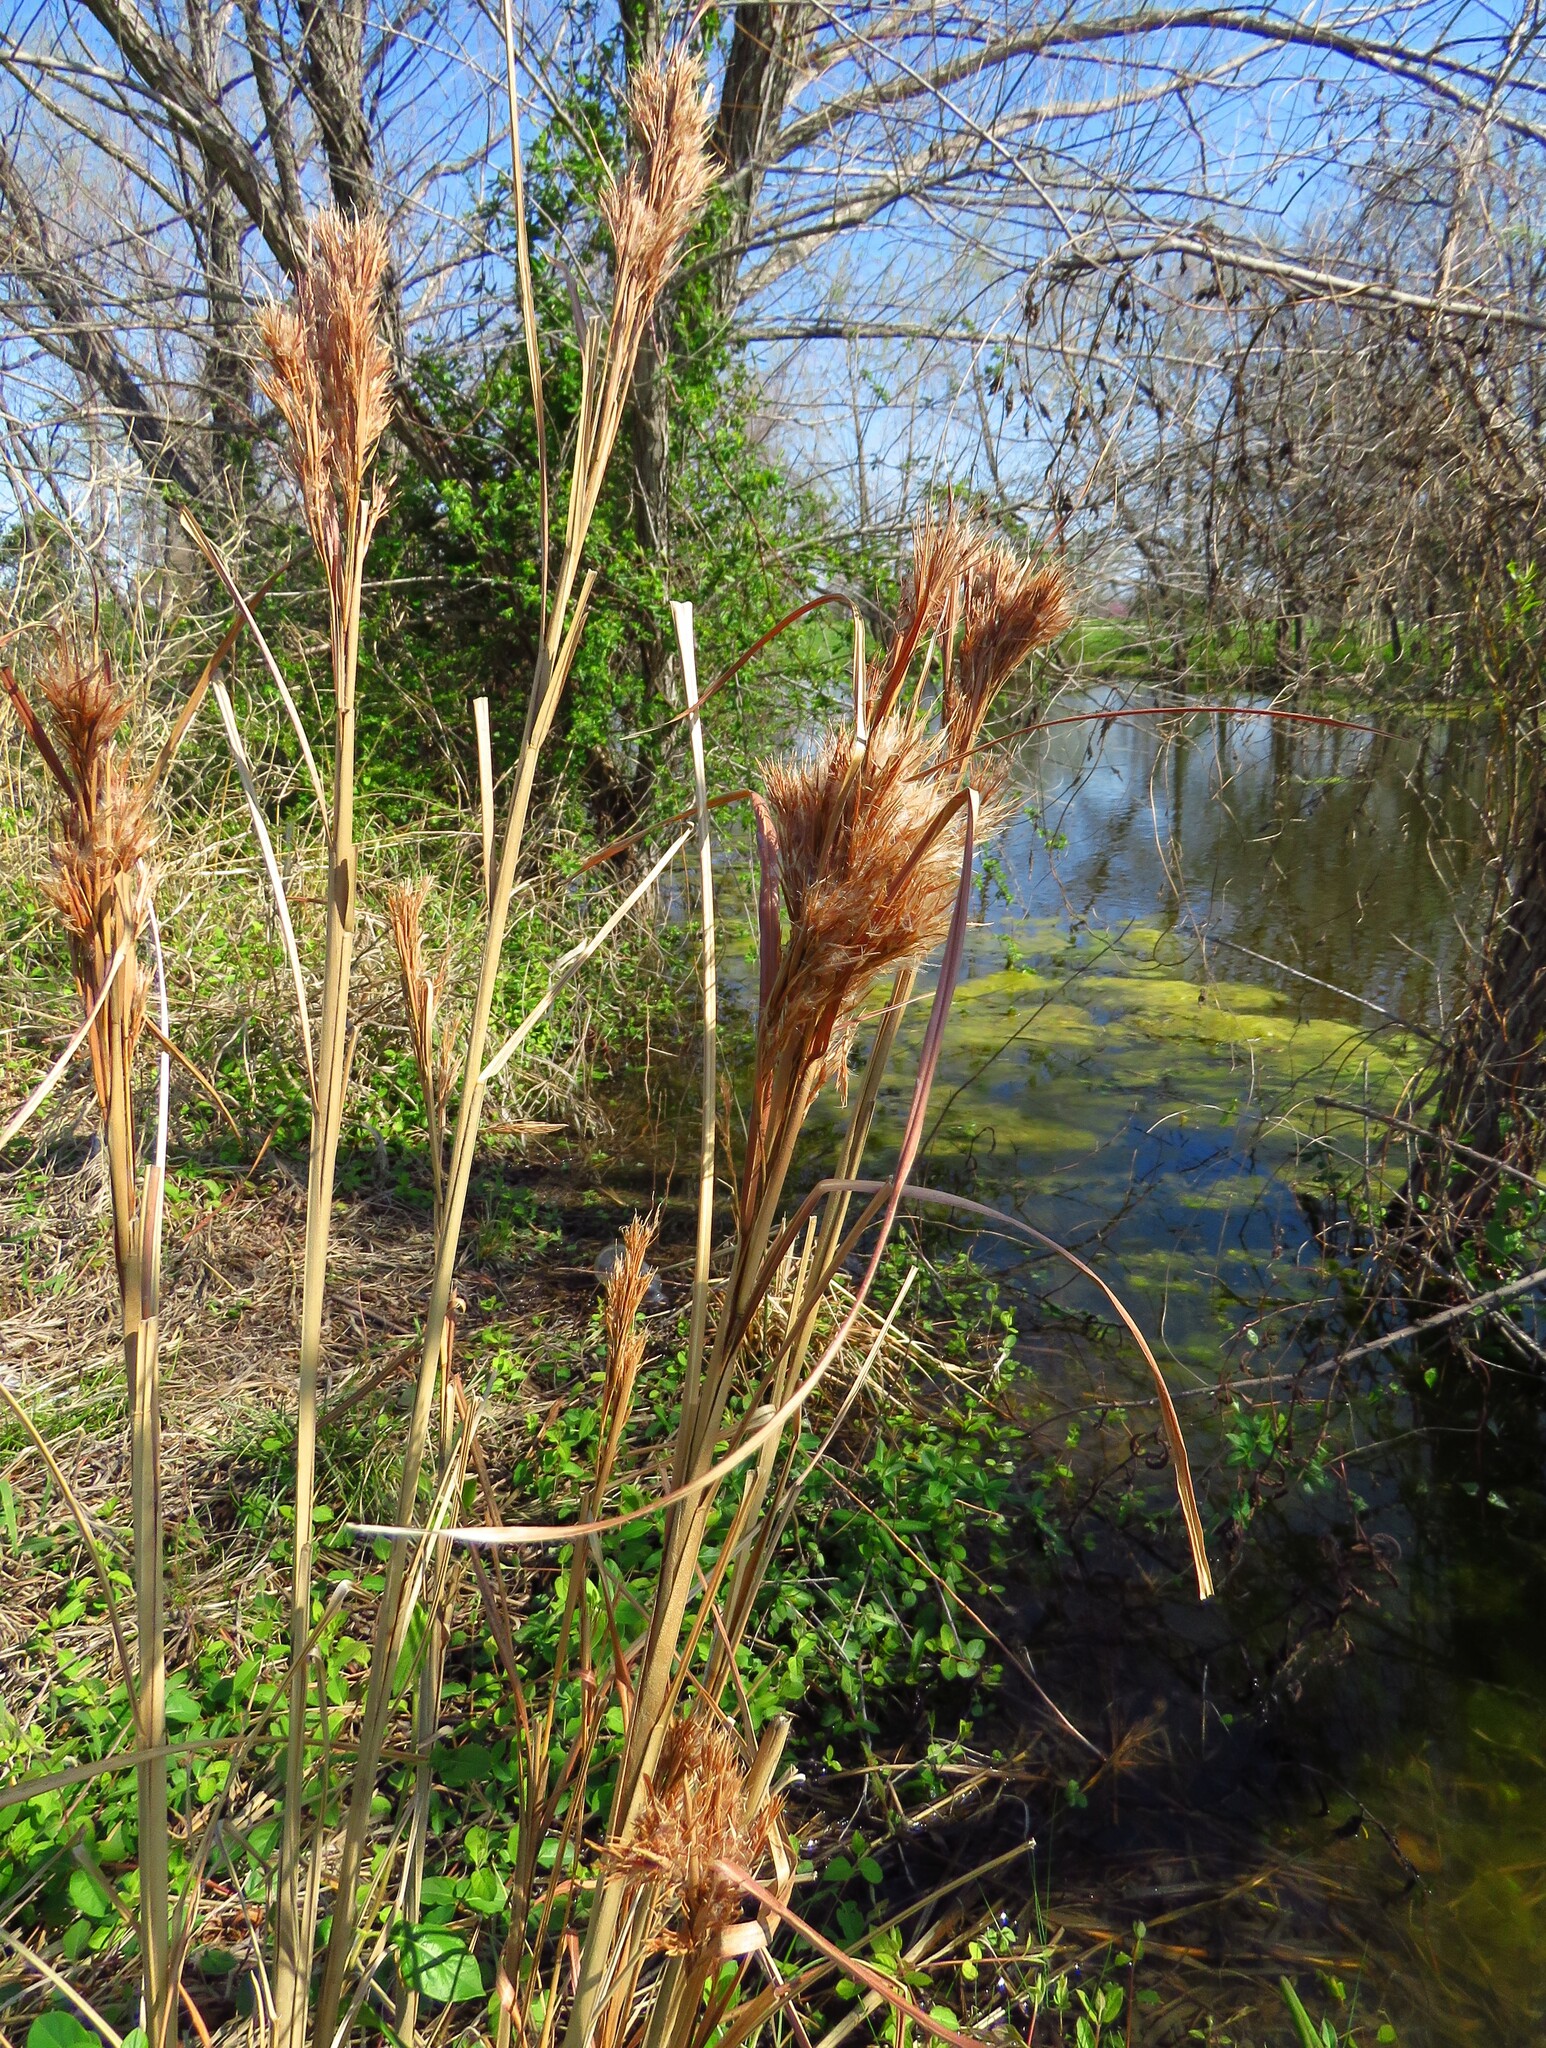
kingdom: Plantae
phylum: Tracheophyta
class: Liliopsida
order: Poales
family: Poaceae
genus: Andropogon
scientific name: Andropogon tenuispatheus
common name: Bushy bluestem
